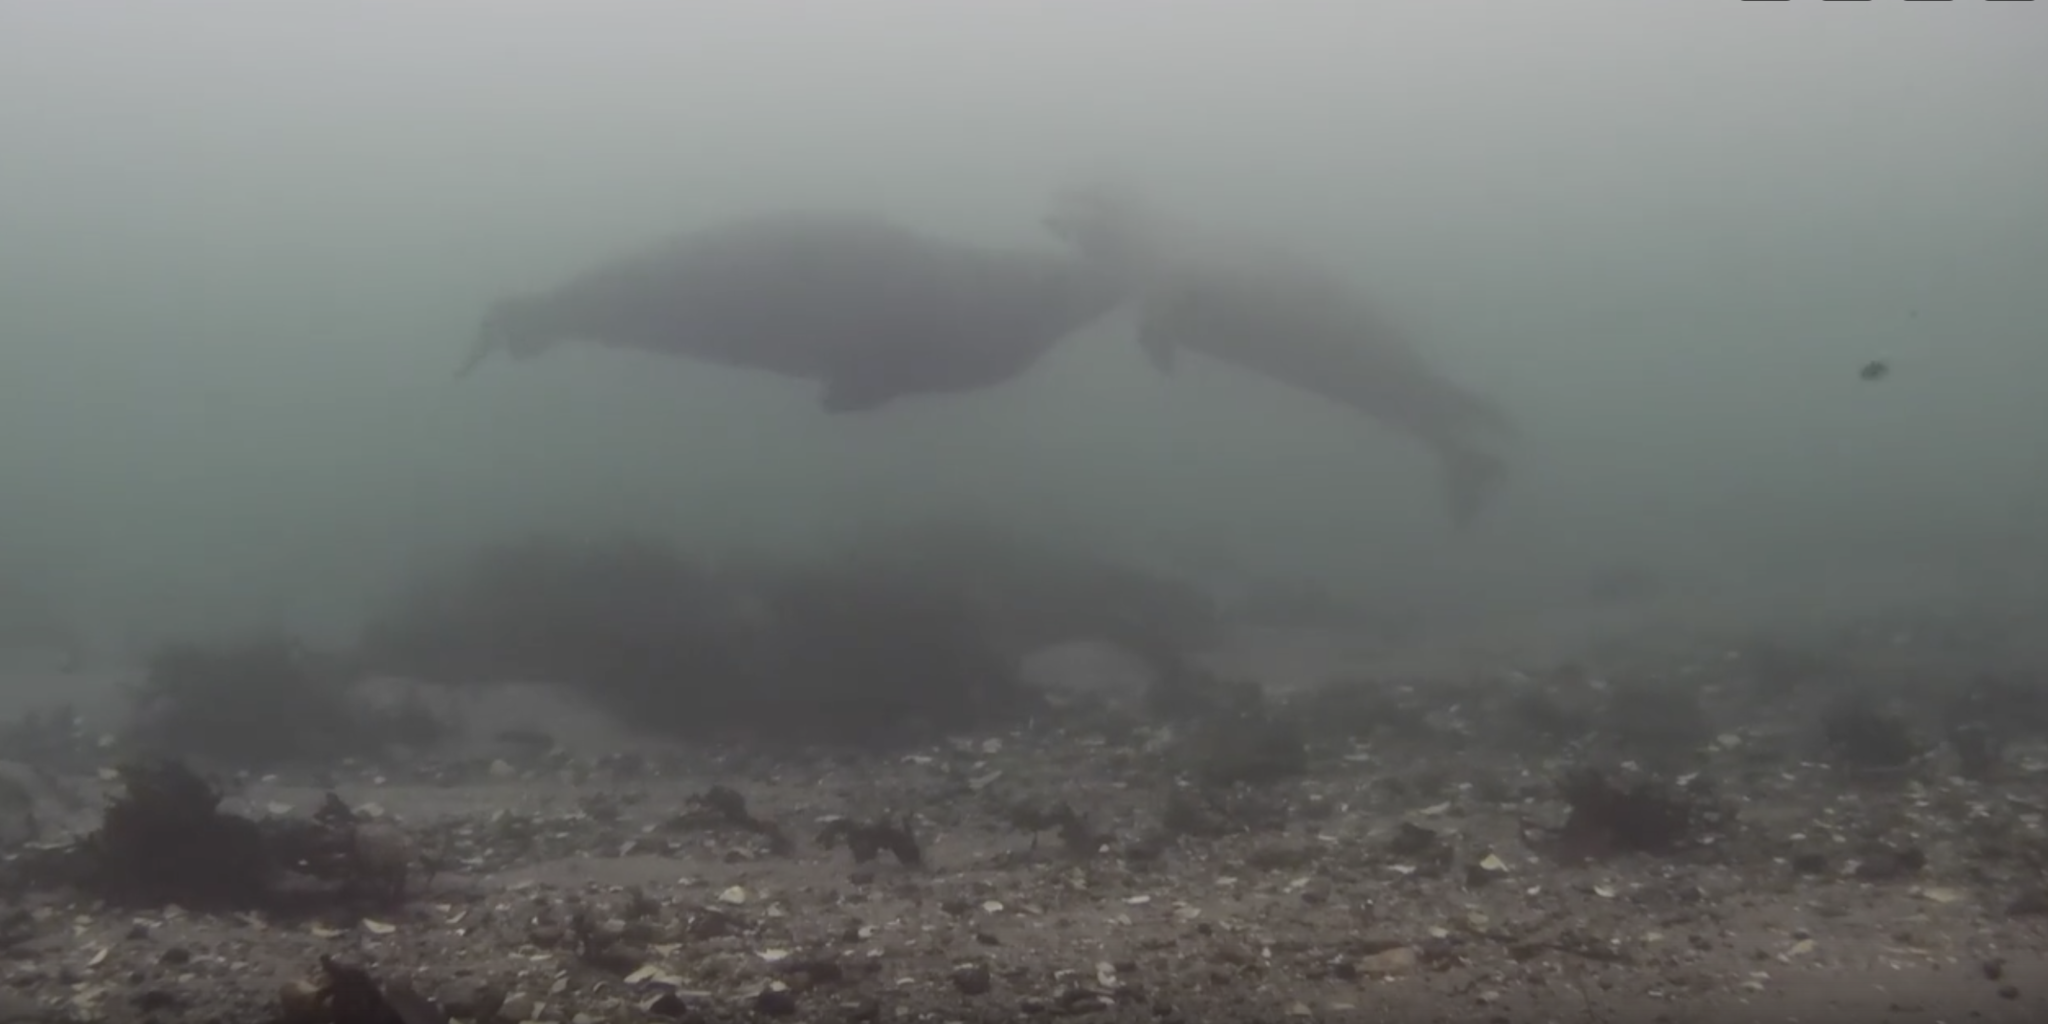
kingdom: Animalia
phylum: Chordata
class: Mammalia
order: Carnivora
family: Phocidae
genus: Phoca
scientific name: Phoca vitulina
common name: Harbor seal
